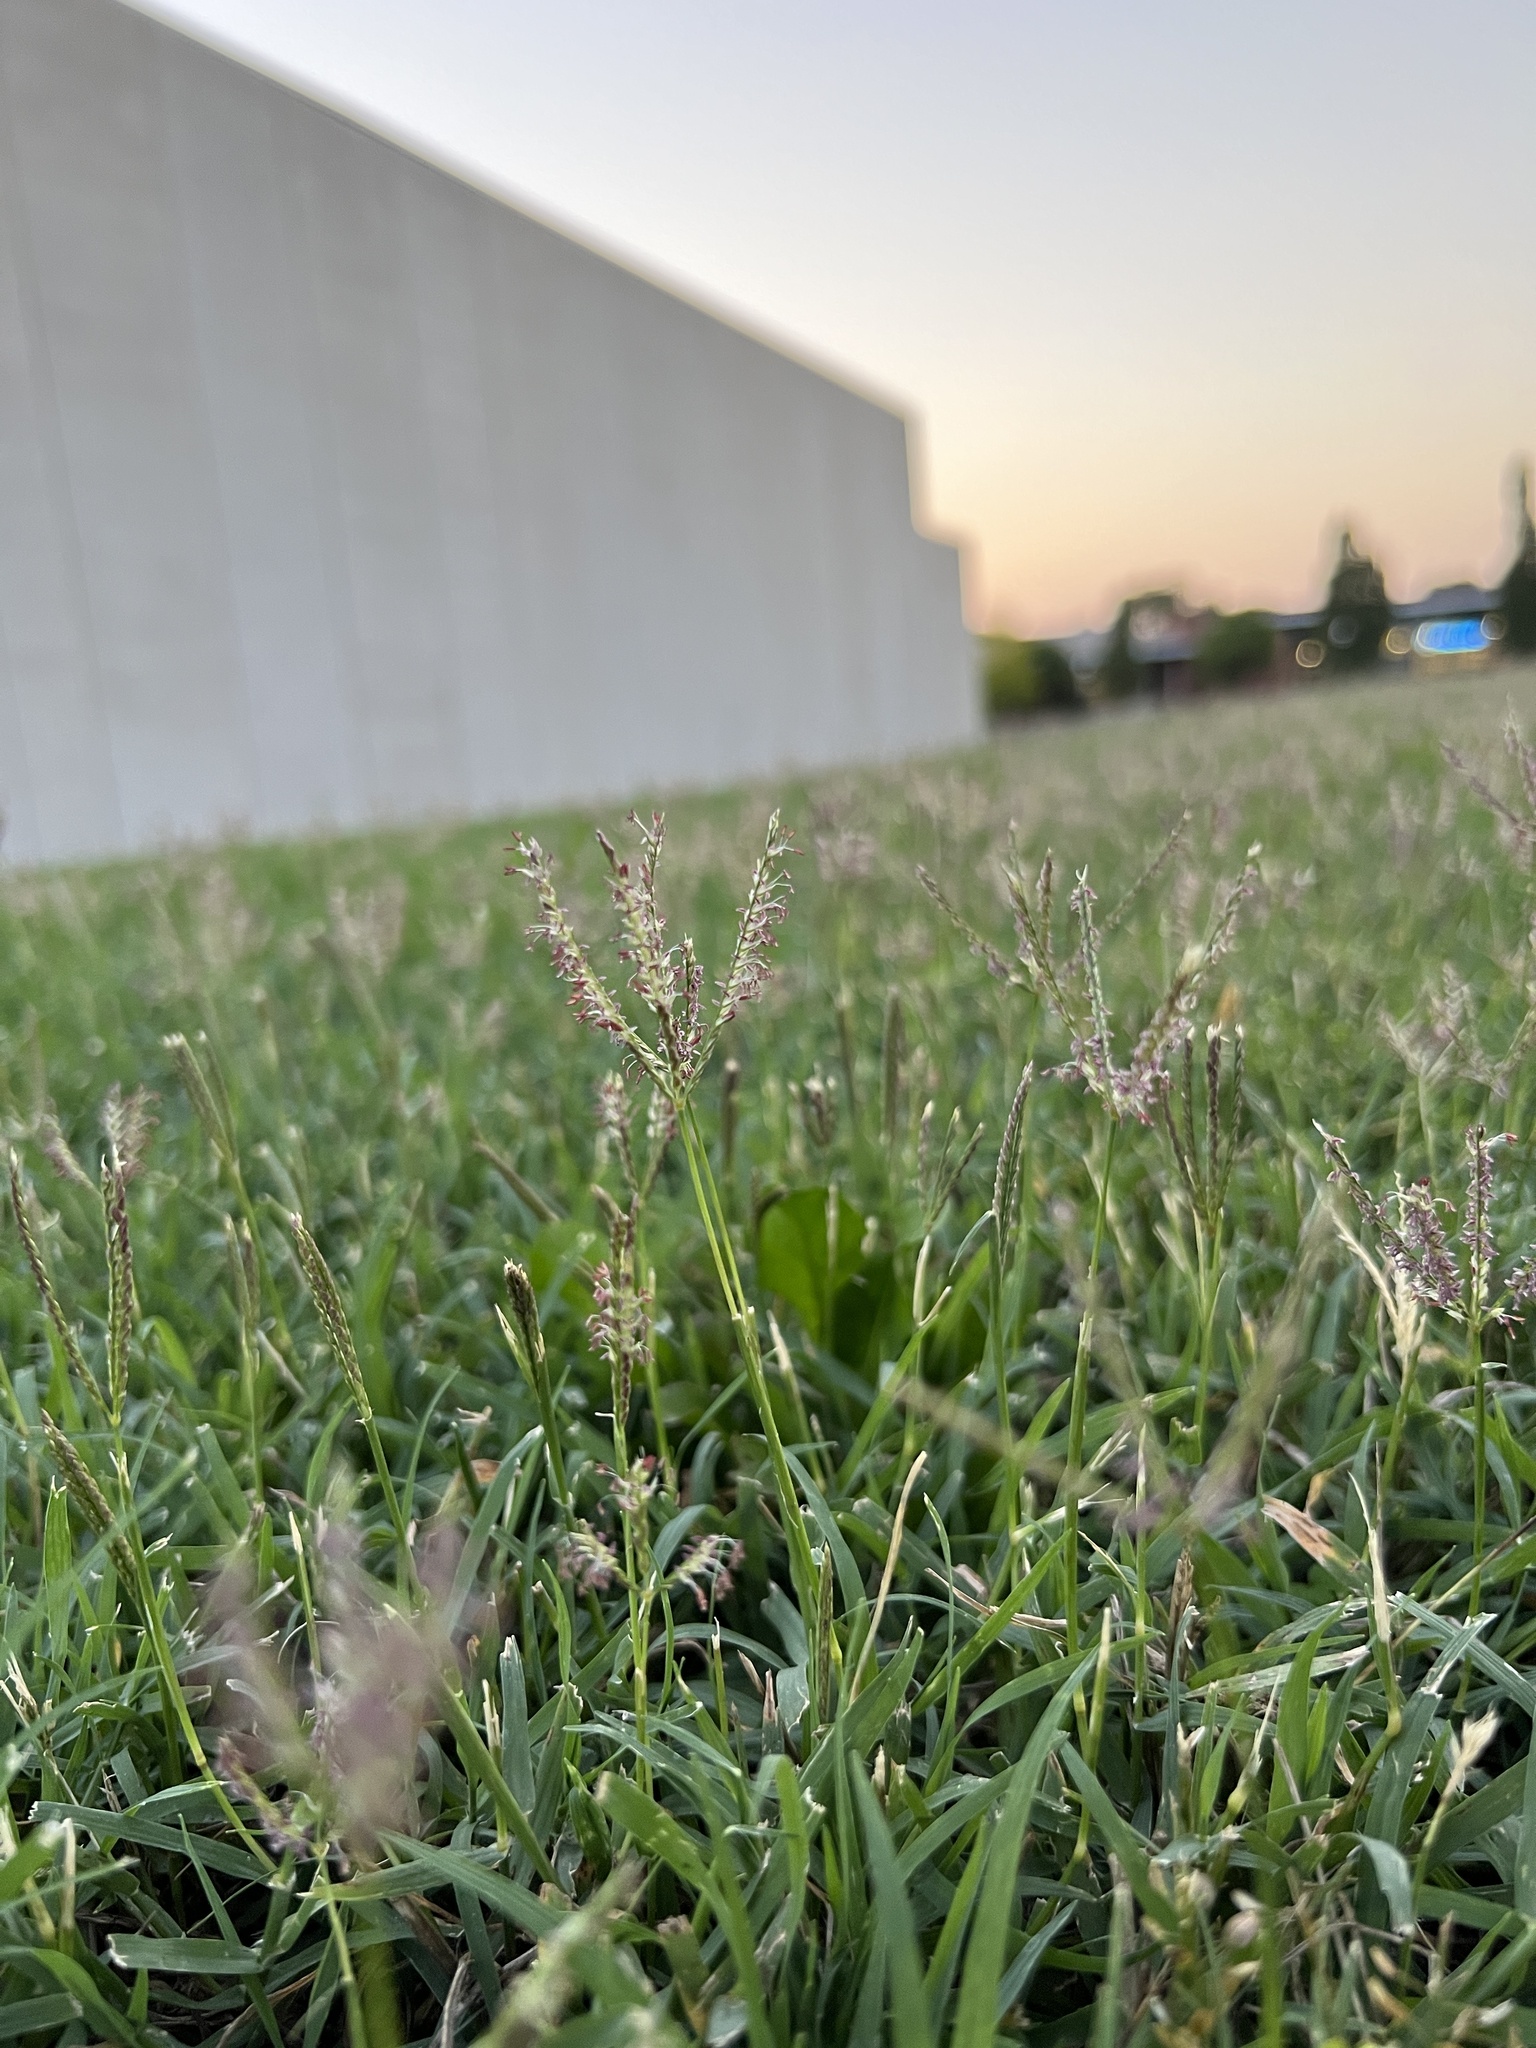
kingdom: Plantae
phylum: Tracheophyta
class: Liliopsida
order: Poales
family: Poaceae
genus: Cynodon
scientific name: Cynodon dactylon
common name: Bermuda grass
